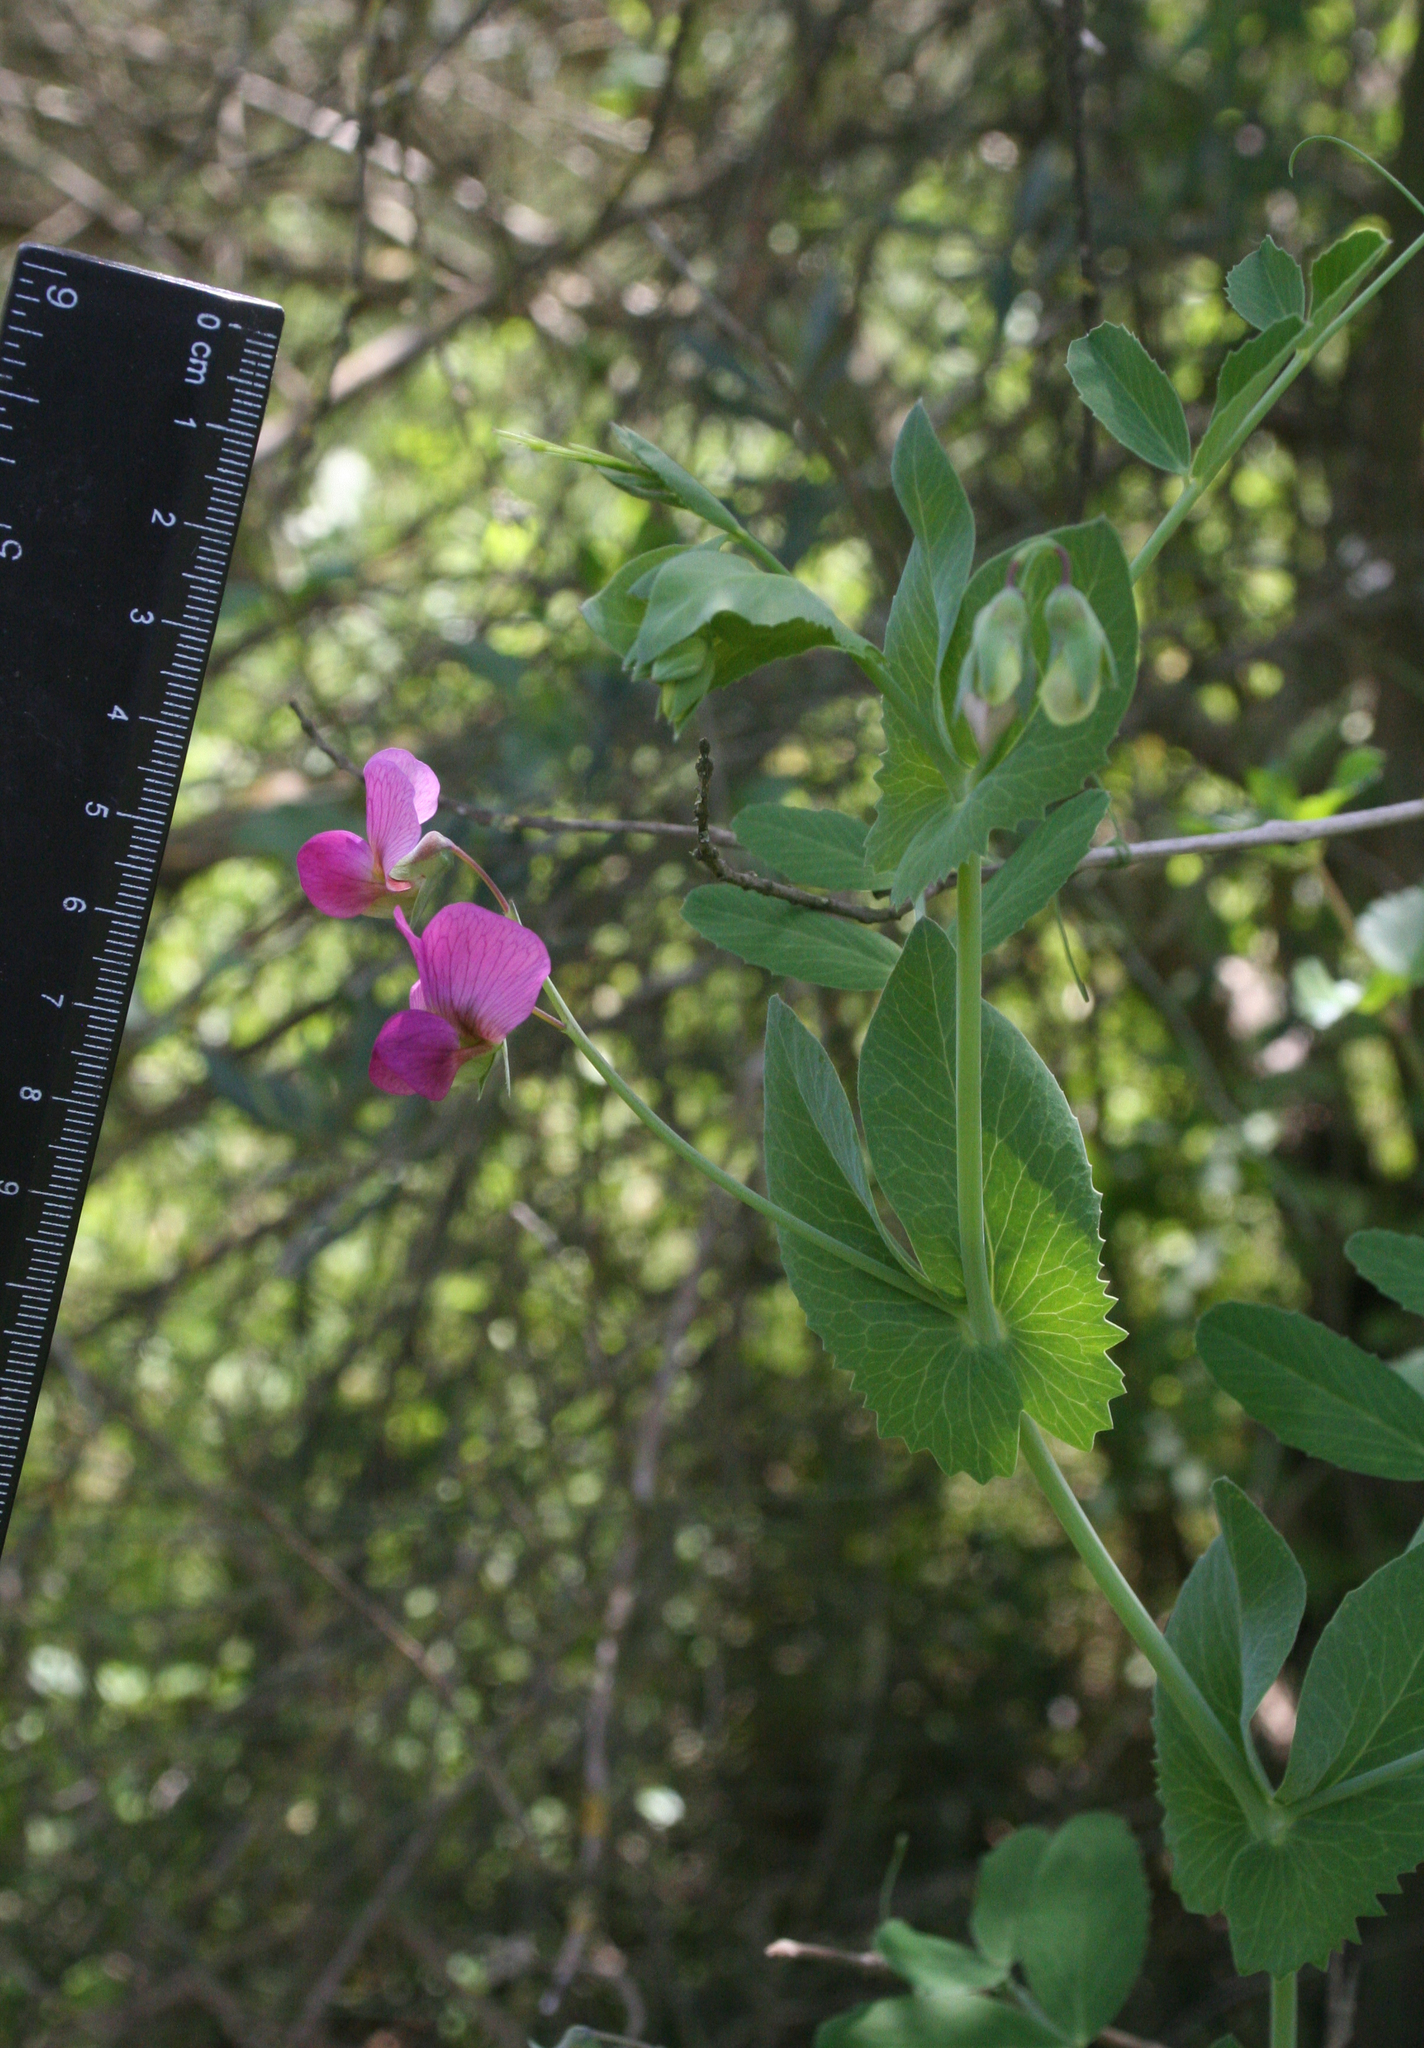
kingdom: Plantae
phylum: Tracheophyta
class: Magnoliopsida
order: Fabales
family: Fabaceae
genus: Lathyrus
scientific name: Lathyrus oleraceus
